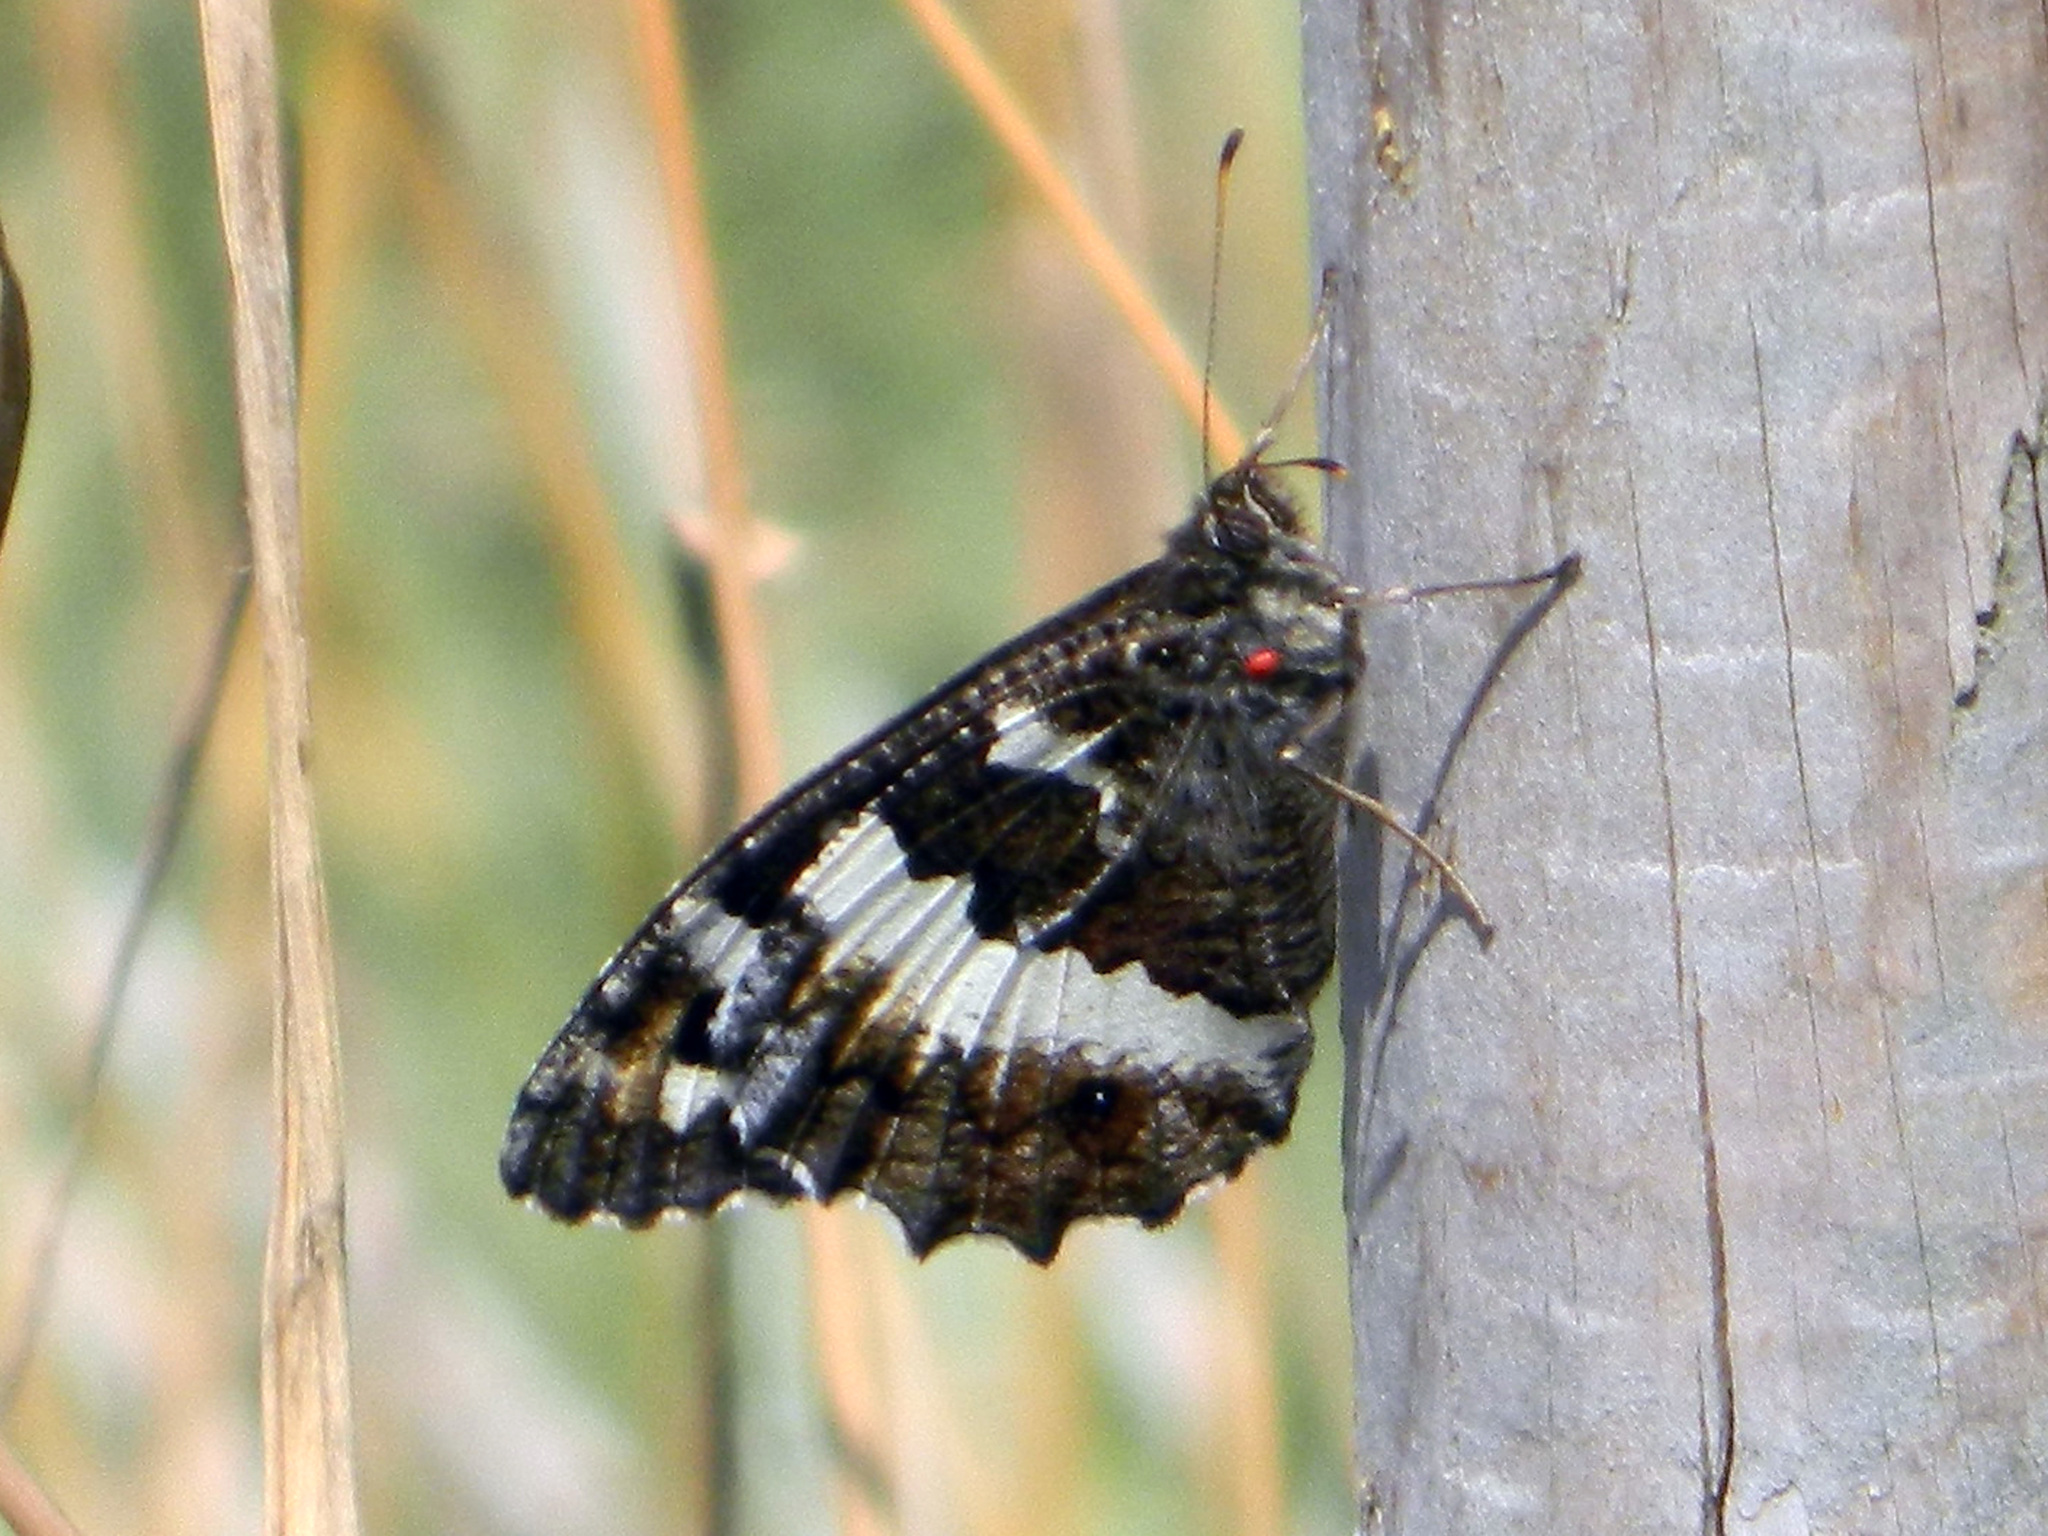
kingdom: Animalia
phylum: Arthropoda
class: Insecta
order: Lepidoptera
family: Lycaenidae
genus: Loweia
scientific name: Loweia tityrus
